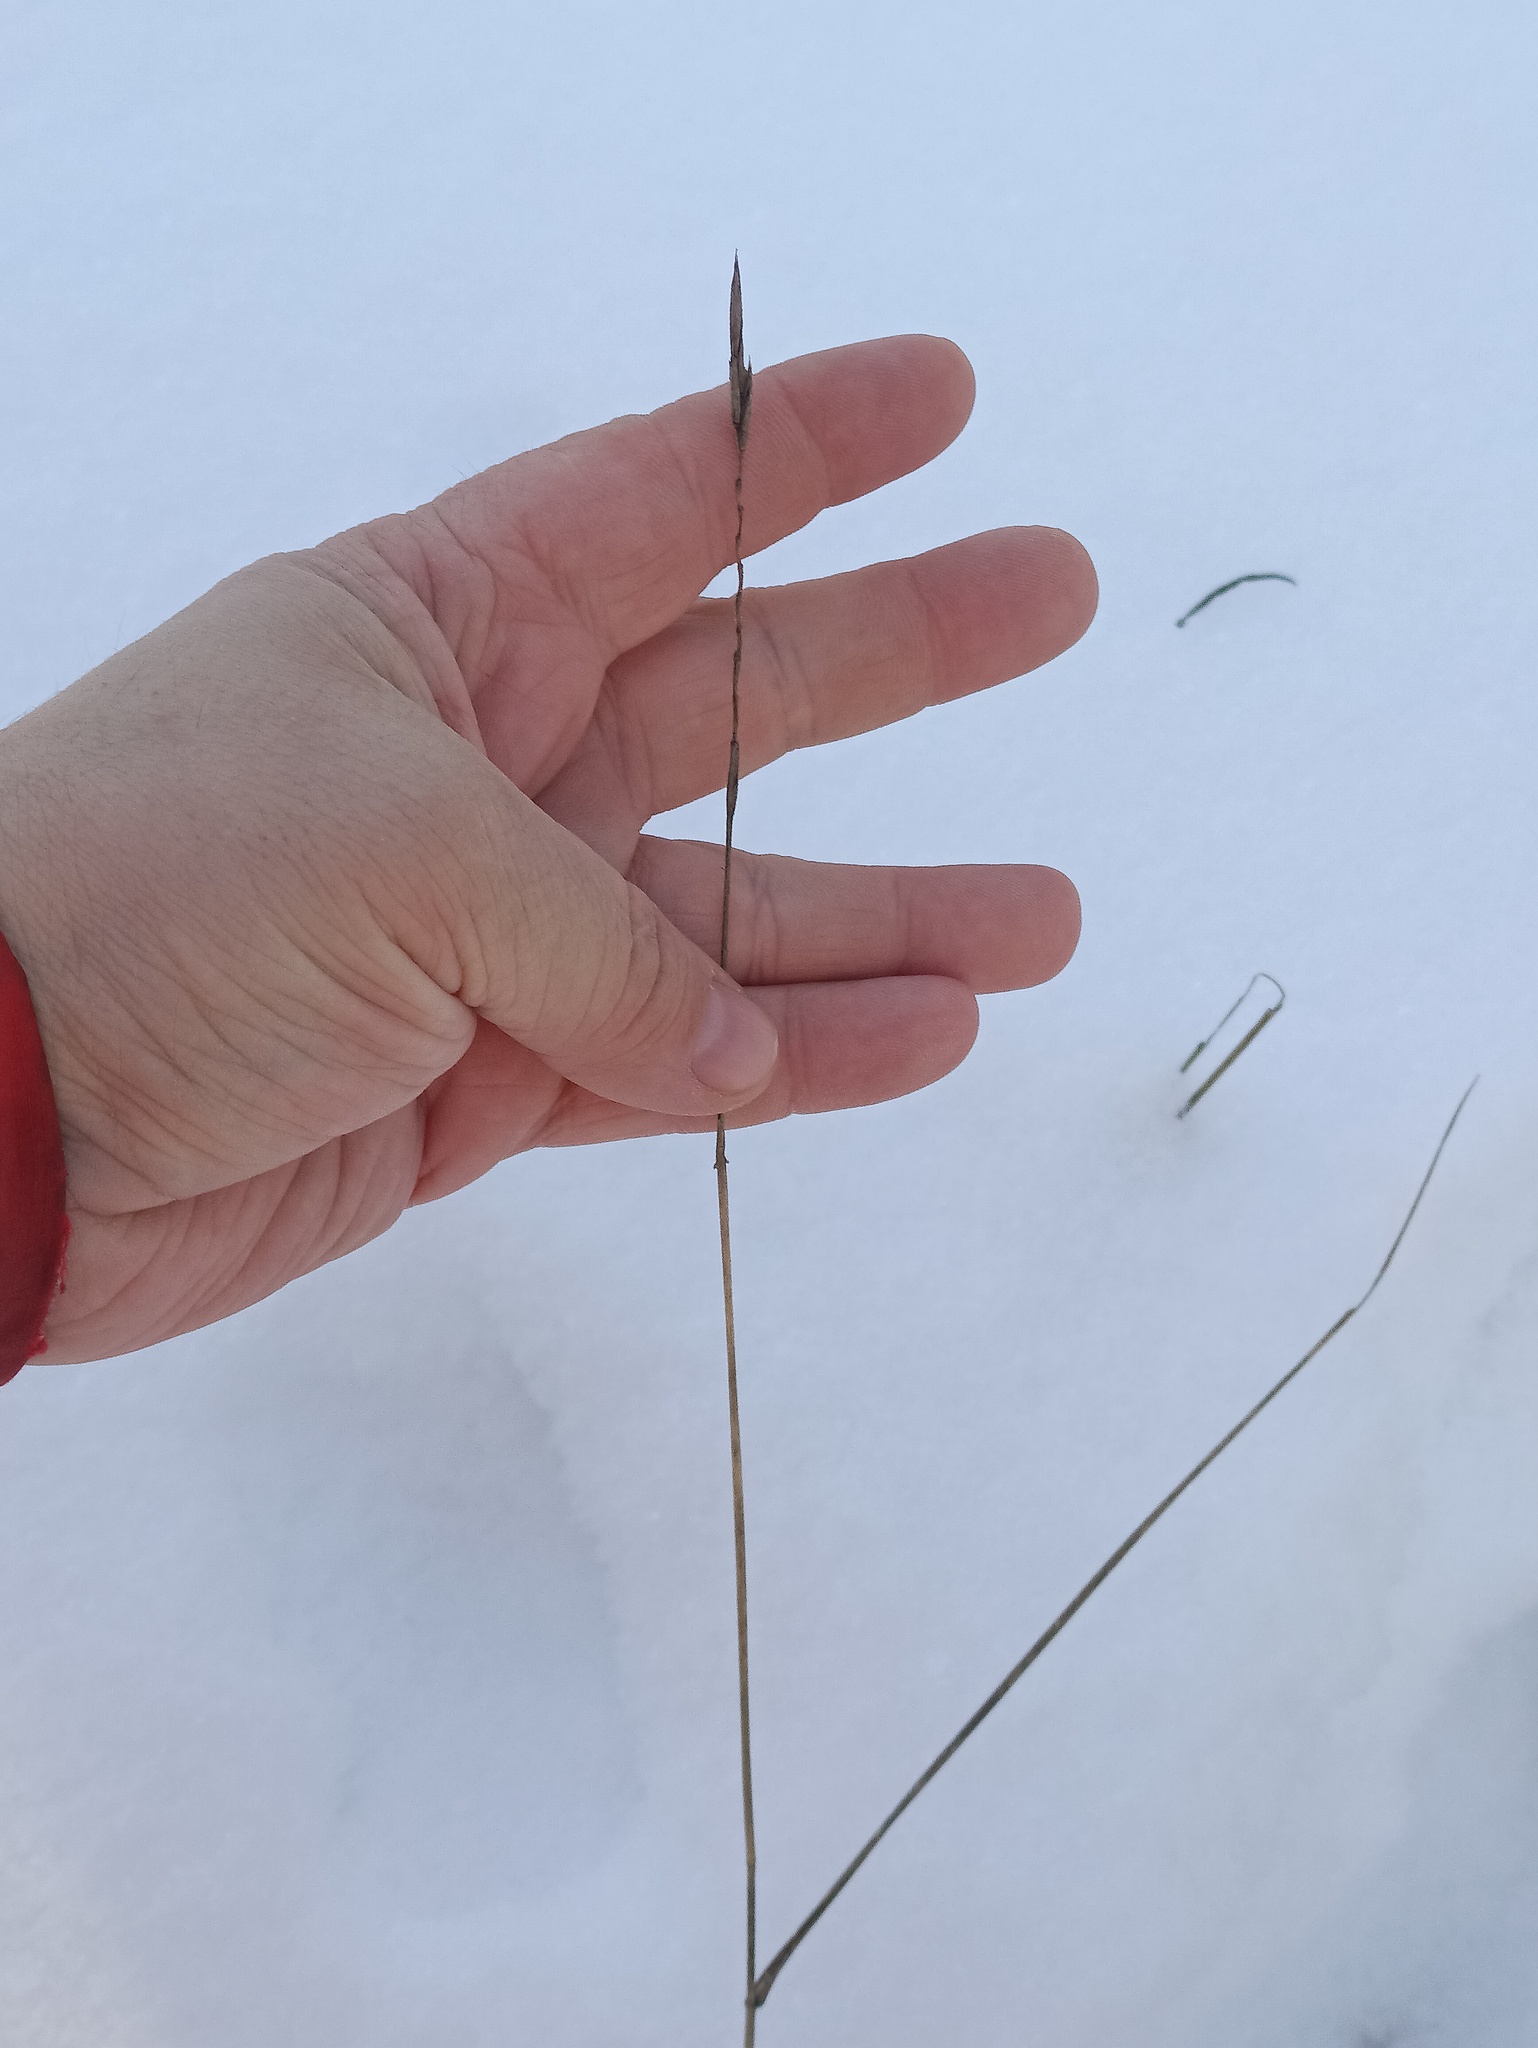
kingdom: Plantae
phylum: Tracheophyta
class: Liliopsida
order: Poales
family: Poaceae
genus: Elymus
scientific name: Elymus repens
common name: Quackgrass
